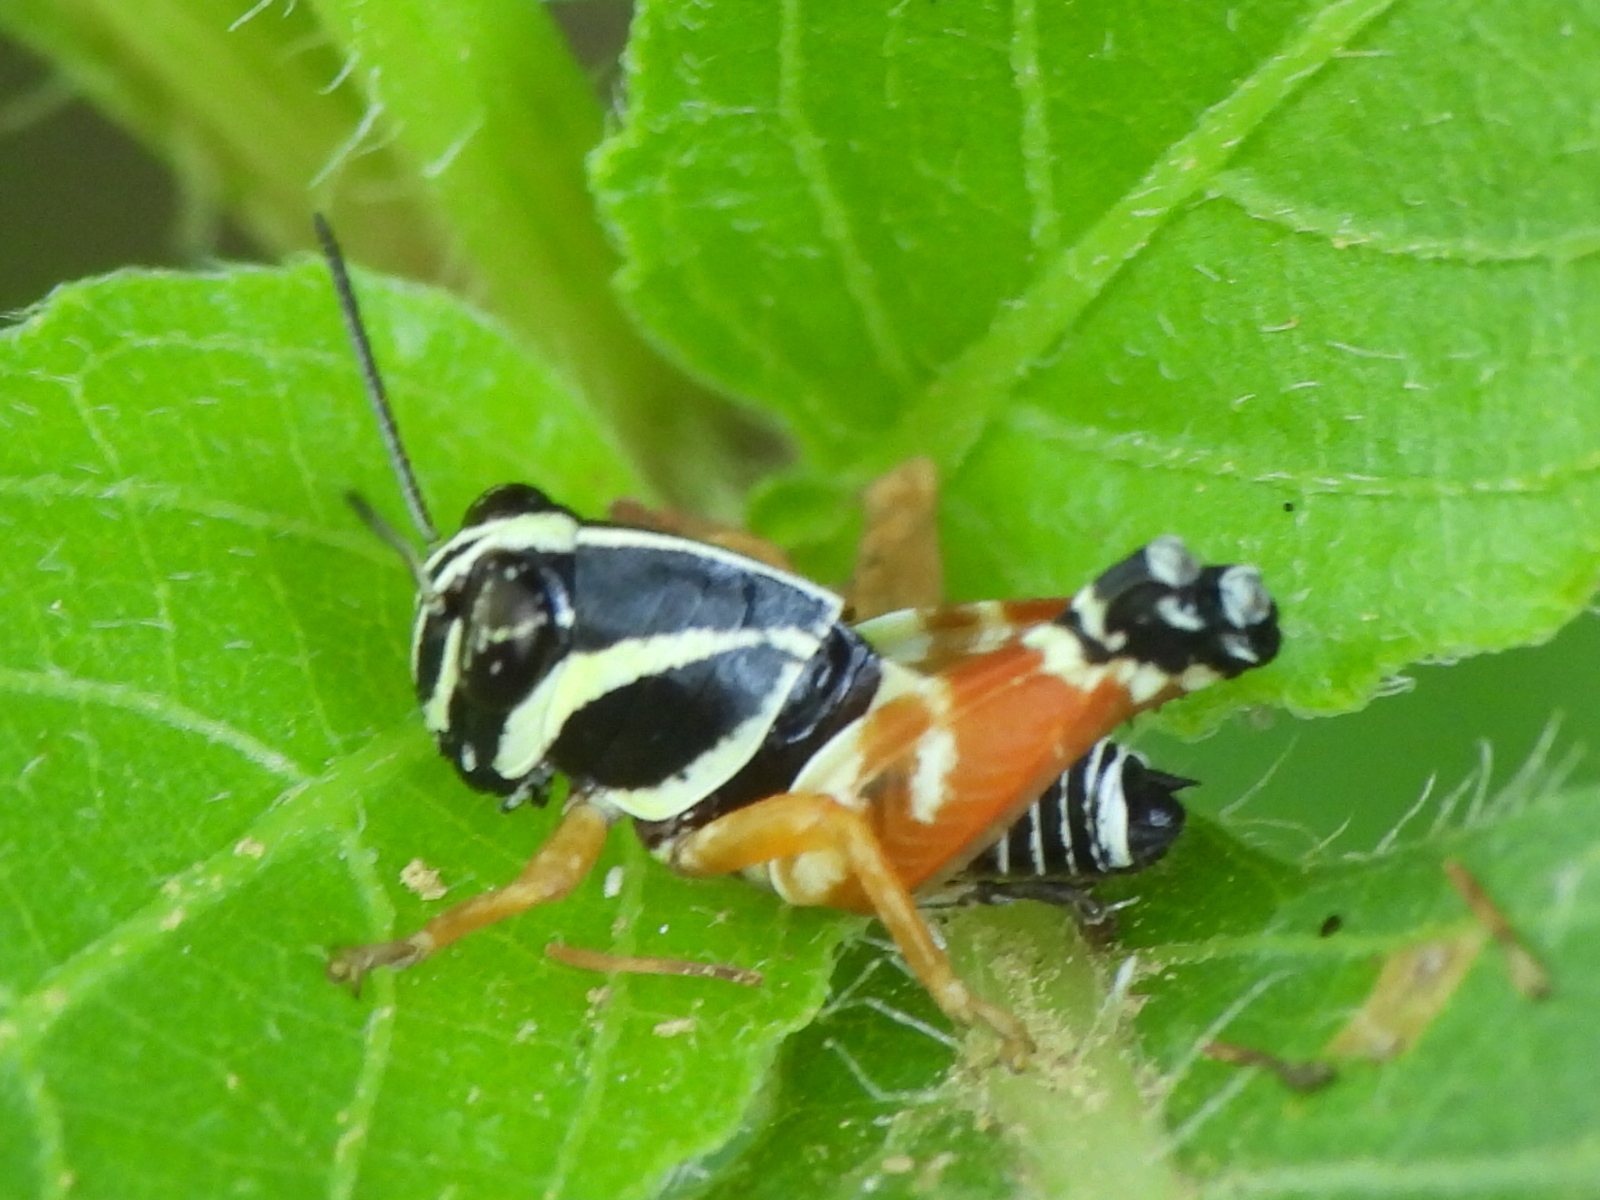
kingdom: Animalia
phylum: Arthropoda
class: Insecta
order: Orthoptera
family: Acrididae
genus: Aidemona
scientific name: Aidemona azteca
